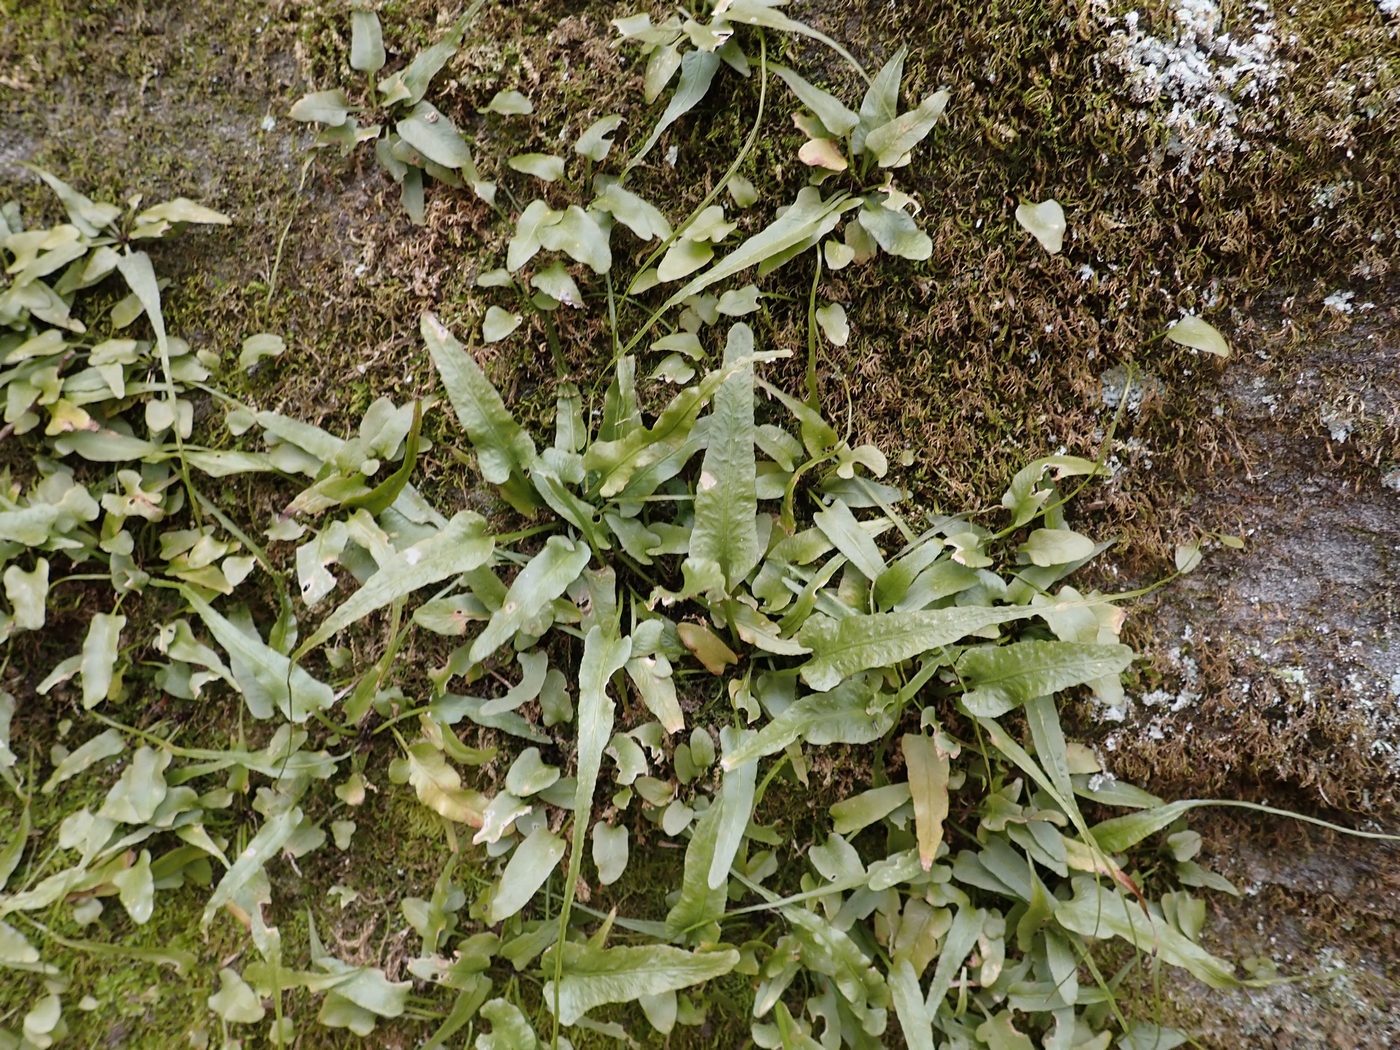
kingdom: Plantae
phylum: Tracheophyta
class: Polypodiopsida
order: Polypodiales
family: Aspleniaceae
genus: Asplenium
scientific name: Asplenium rhizophyllum
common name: Walking fern
